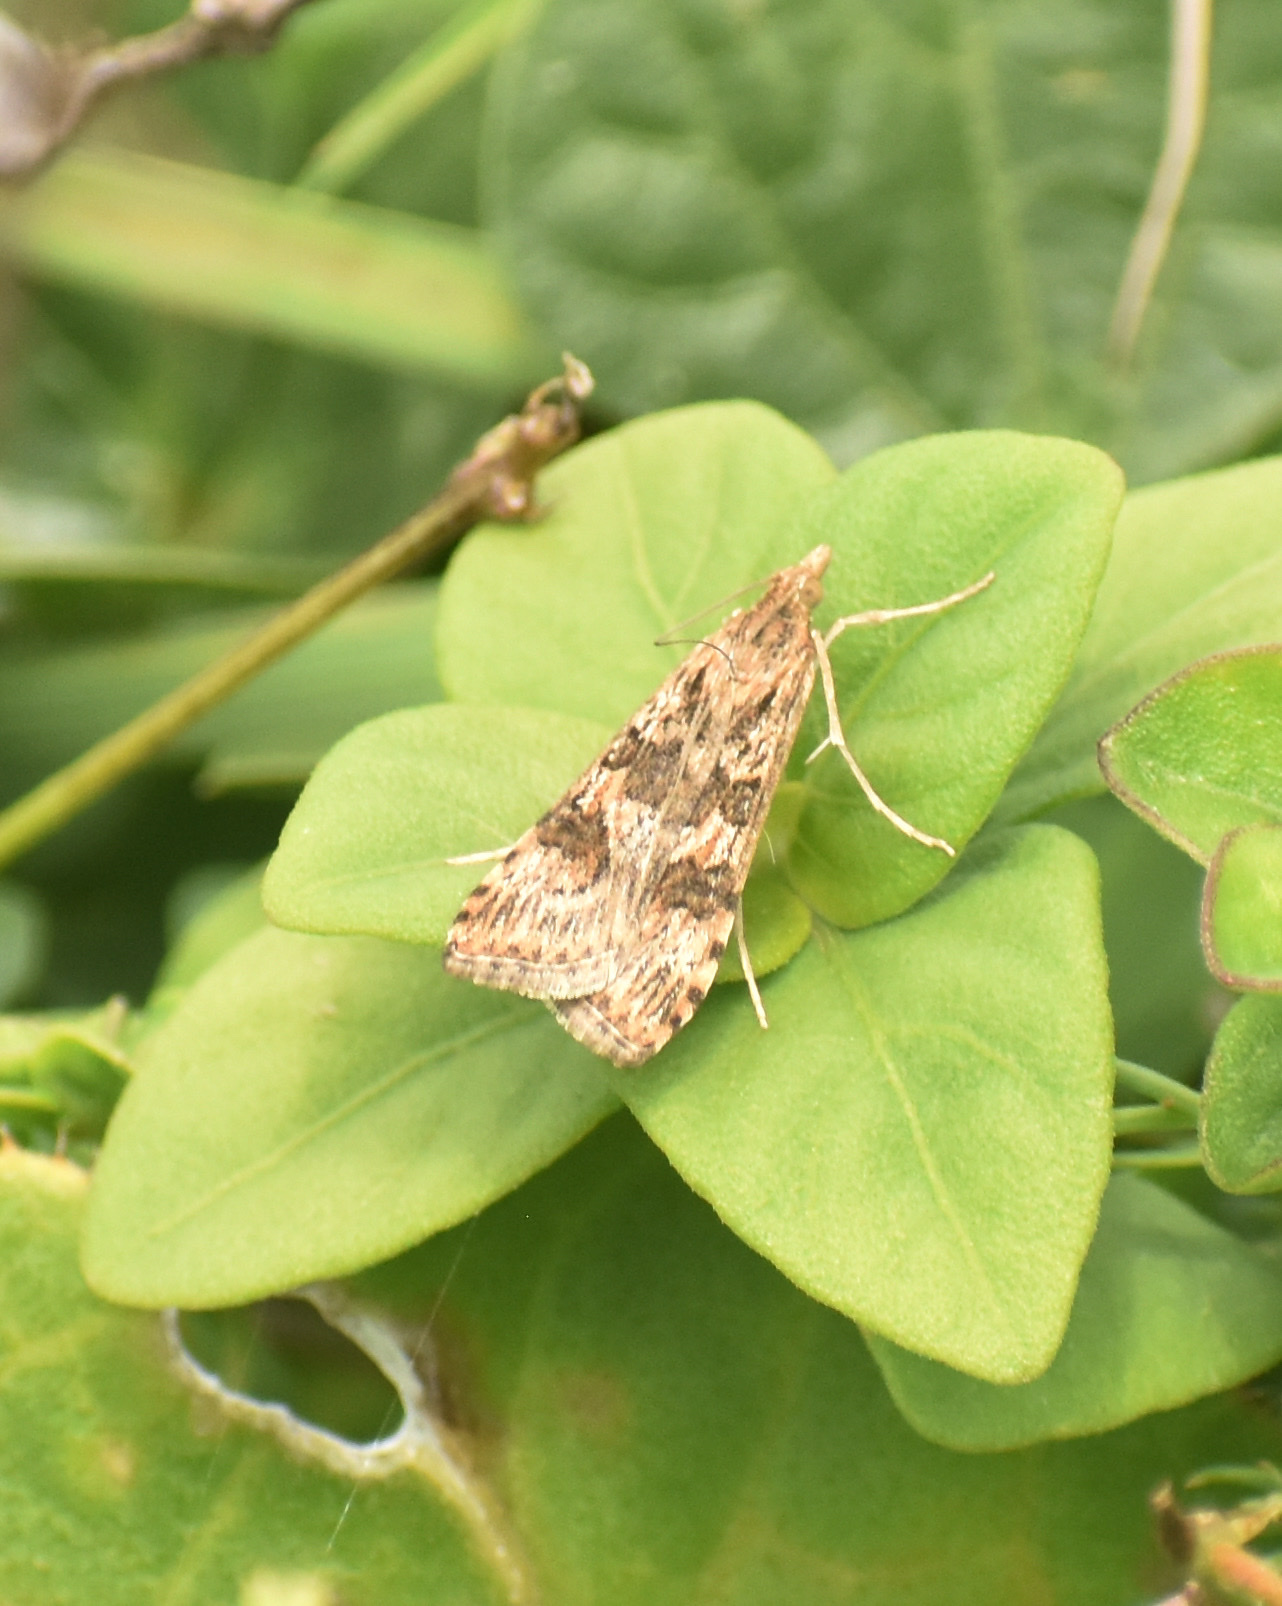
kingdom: Animalia
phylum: Arthropoda
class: Insecta
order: Lepidoptera
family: Crambidae
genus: Nomophila
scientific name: Nomophila noctuella
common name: Rush veneer
